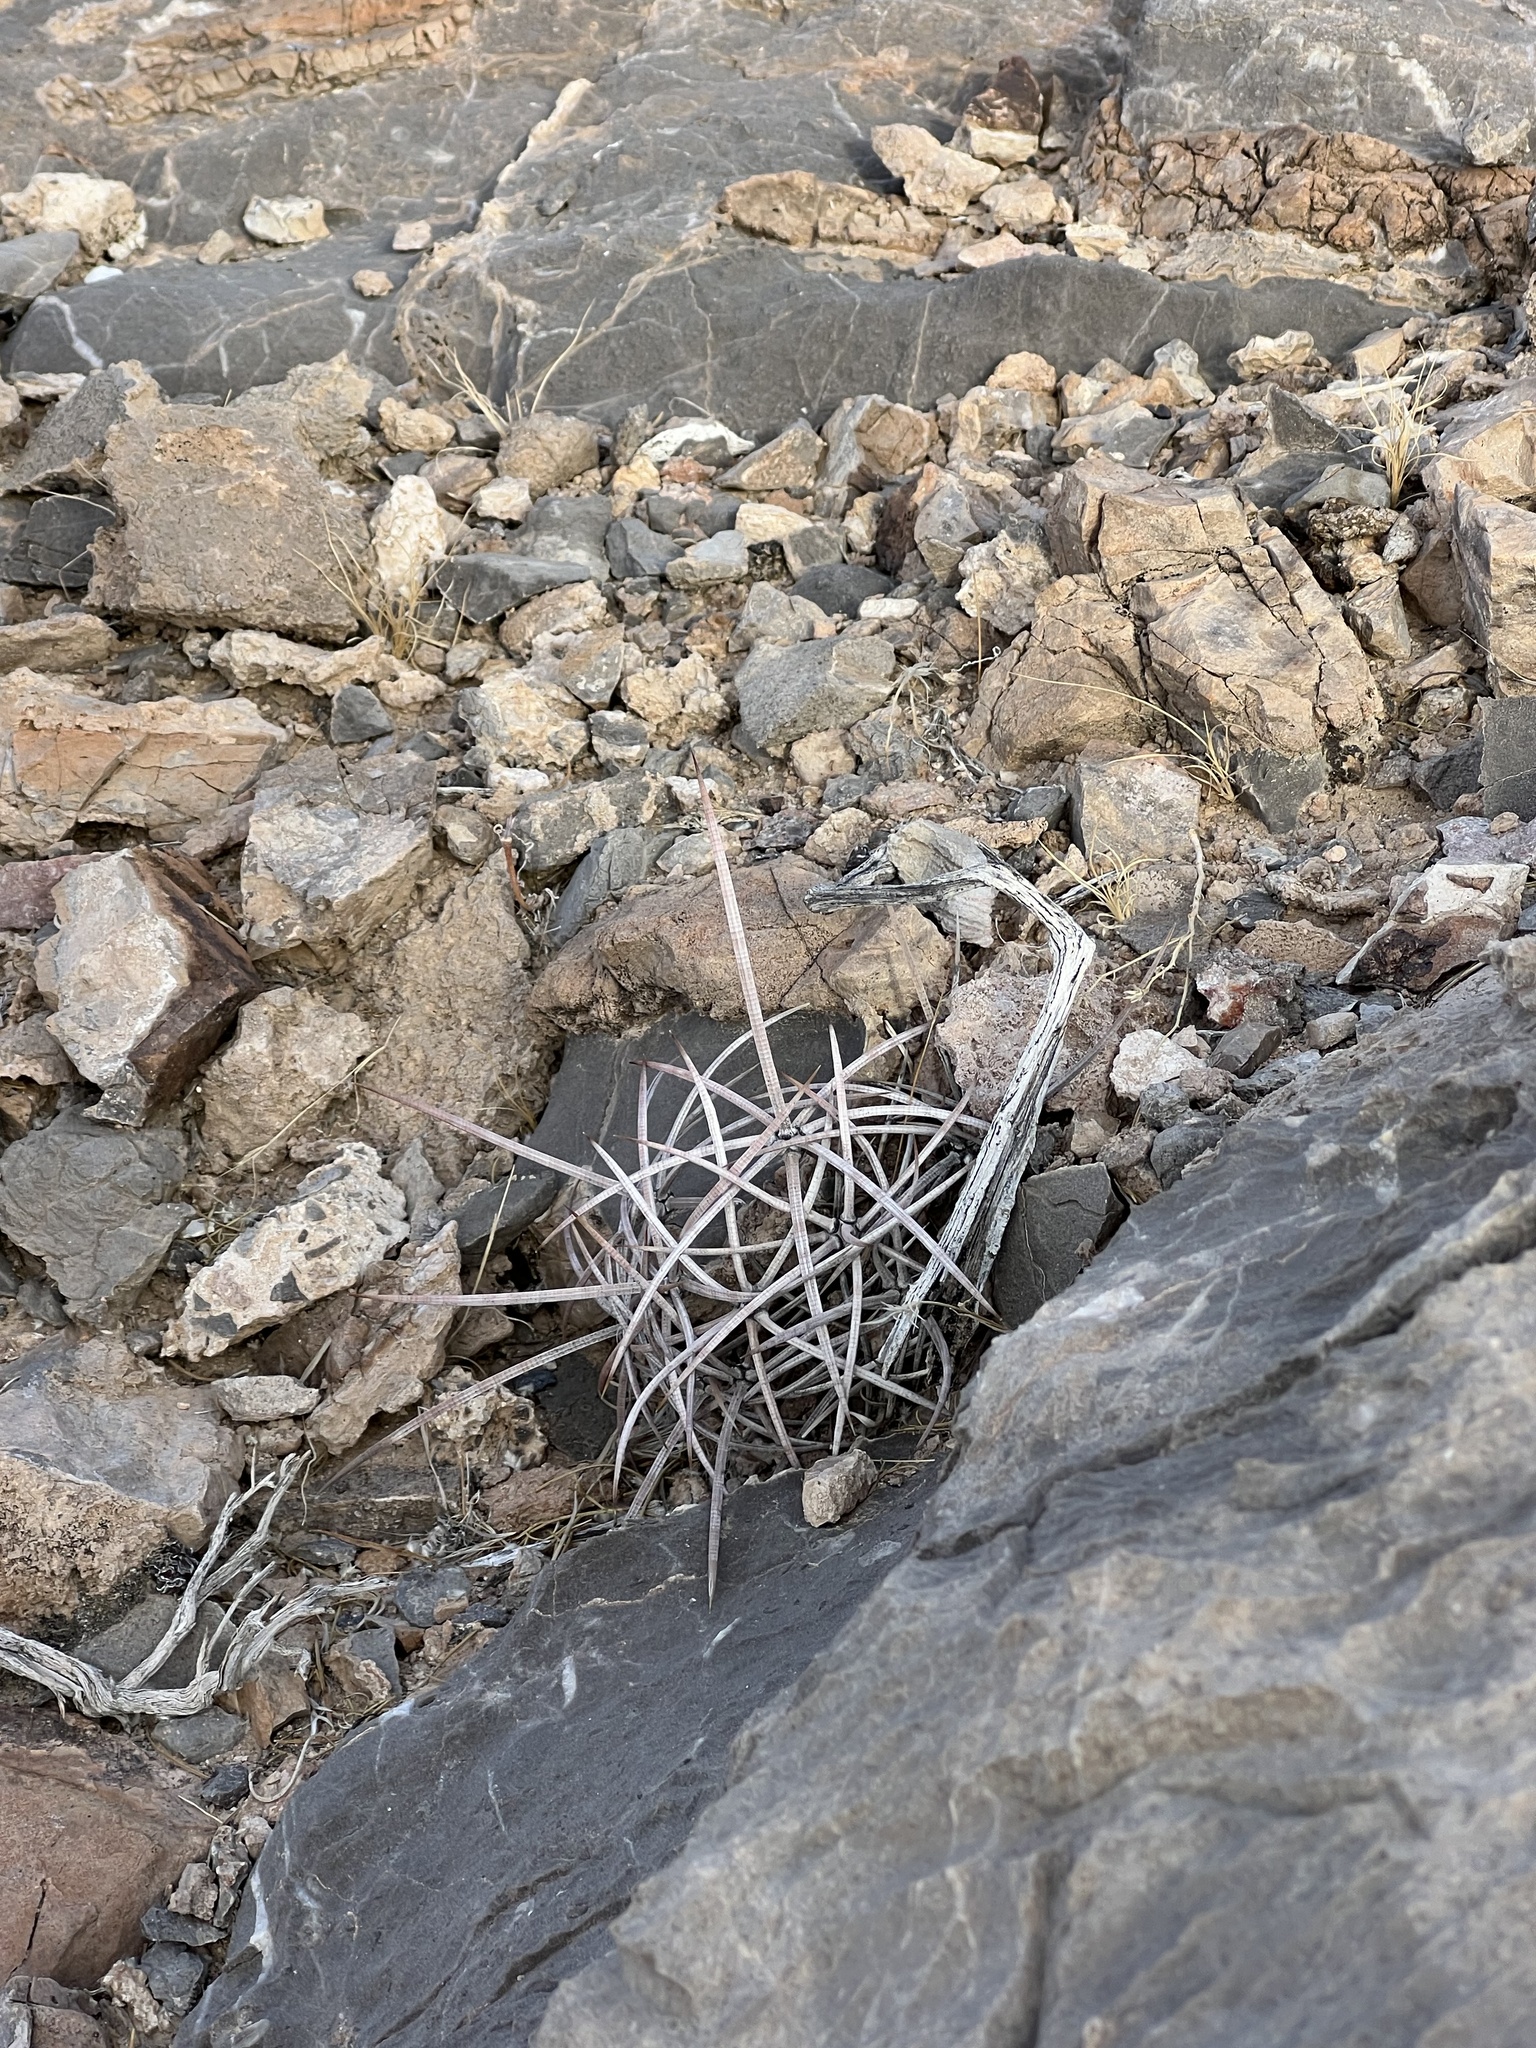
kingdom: Plantae
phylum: Tracheophyta
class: Magnoliopsida
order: Caryophyllales
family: Cactaceae
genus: Echinocactus
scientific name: Echinocactus polycephalus
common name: Cottontop cactus
